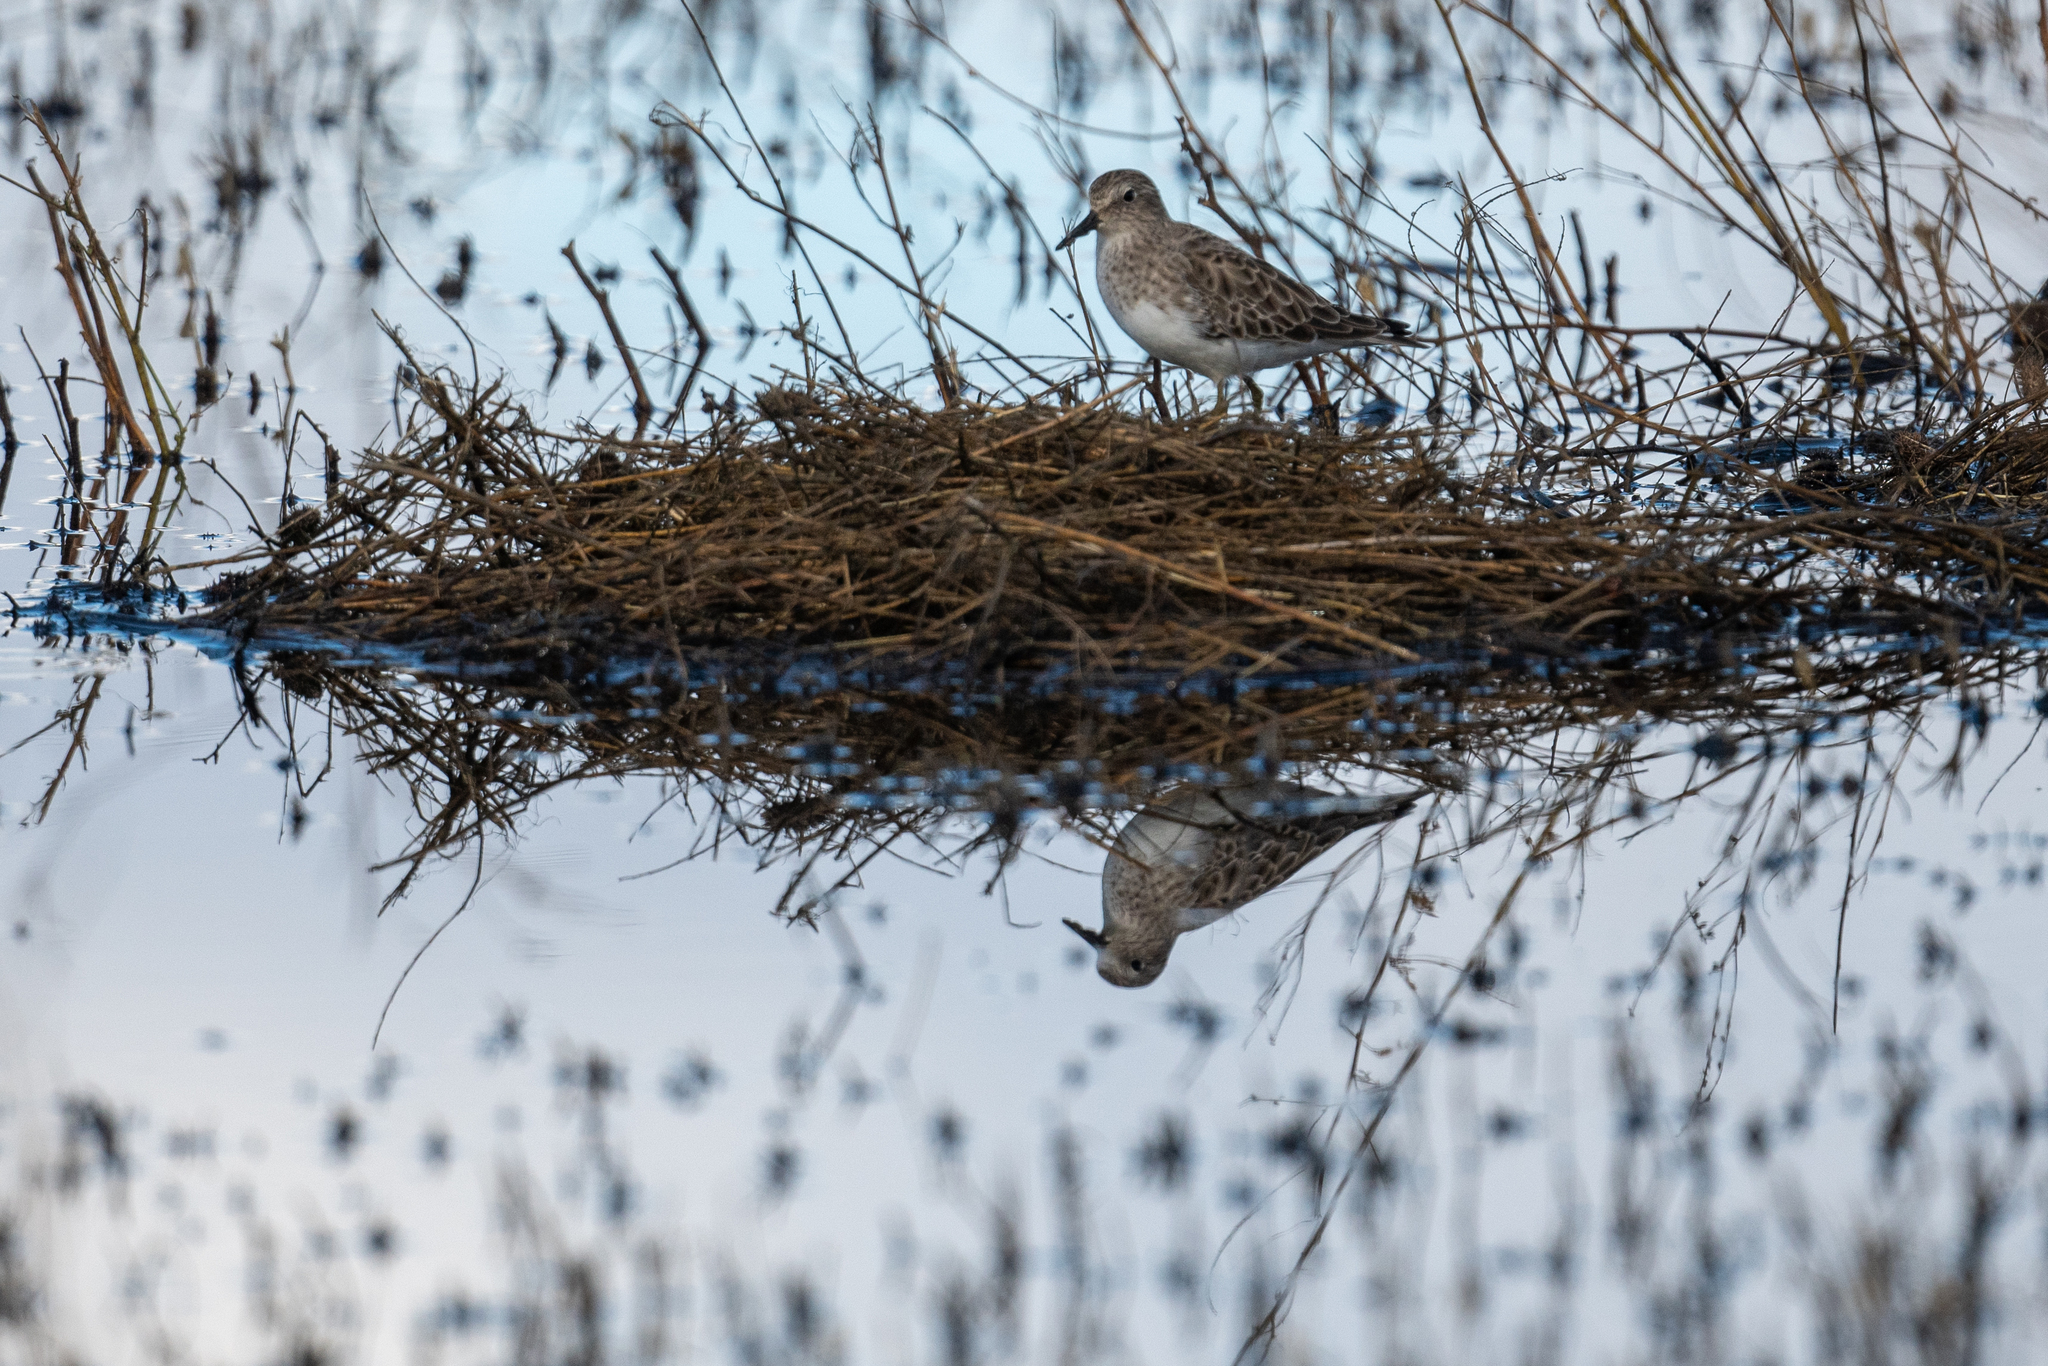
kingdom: Animalia
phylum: Chordata
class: Aves
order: Charadriiformes
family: Scolopacidae
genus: Calidris
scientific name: Calidris minutilla
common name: Least sandpiper
